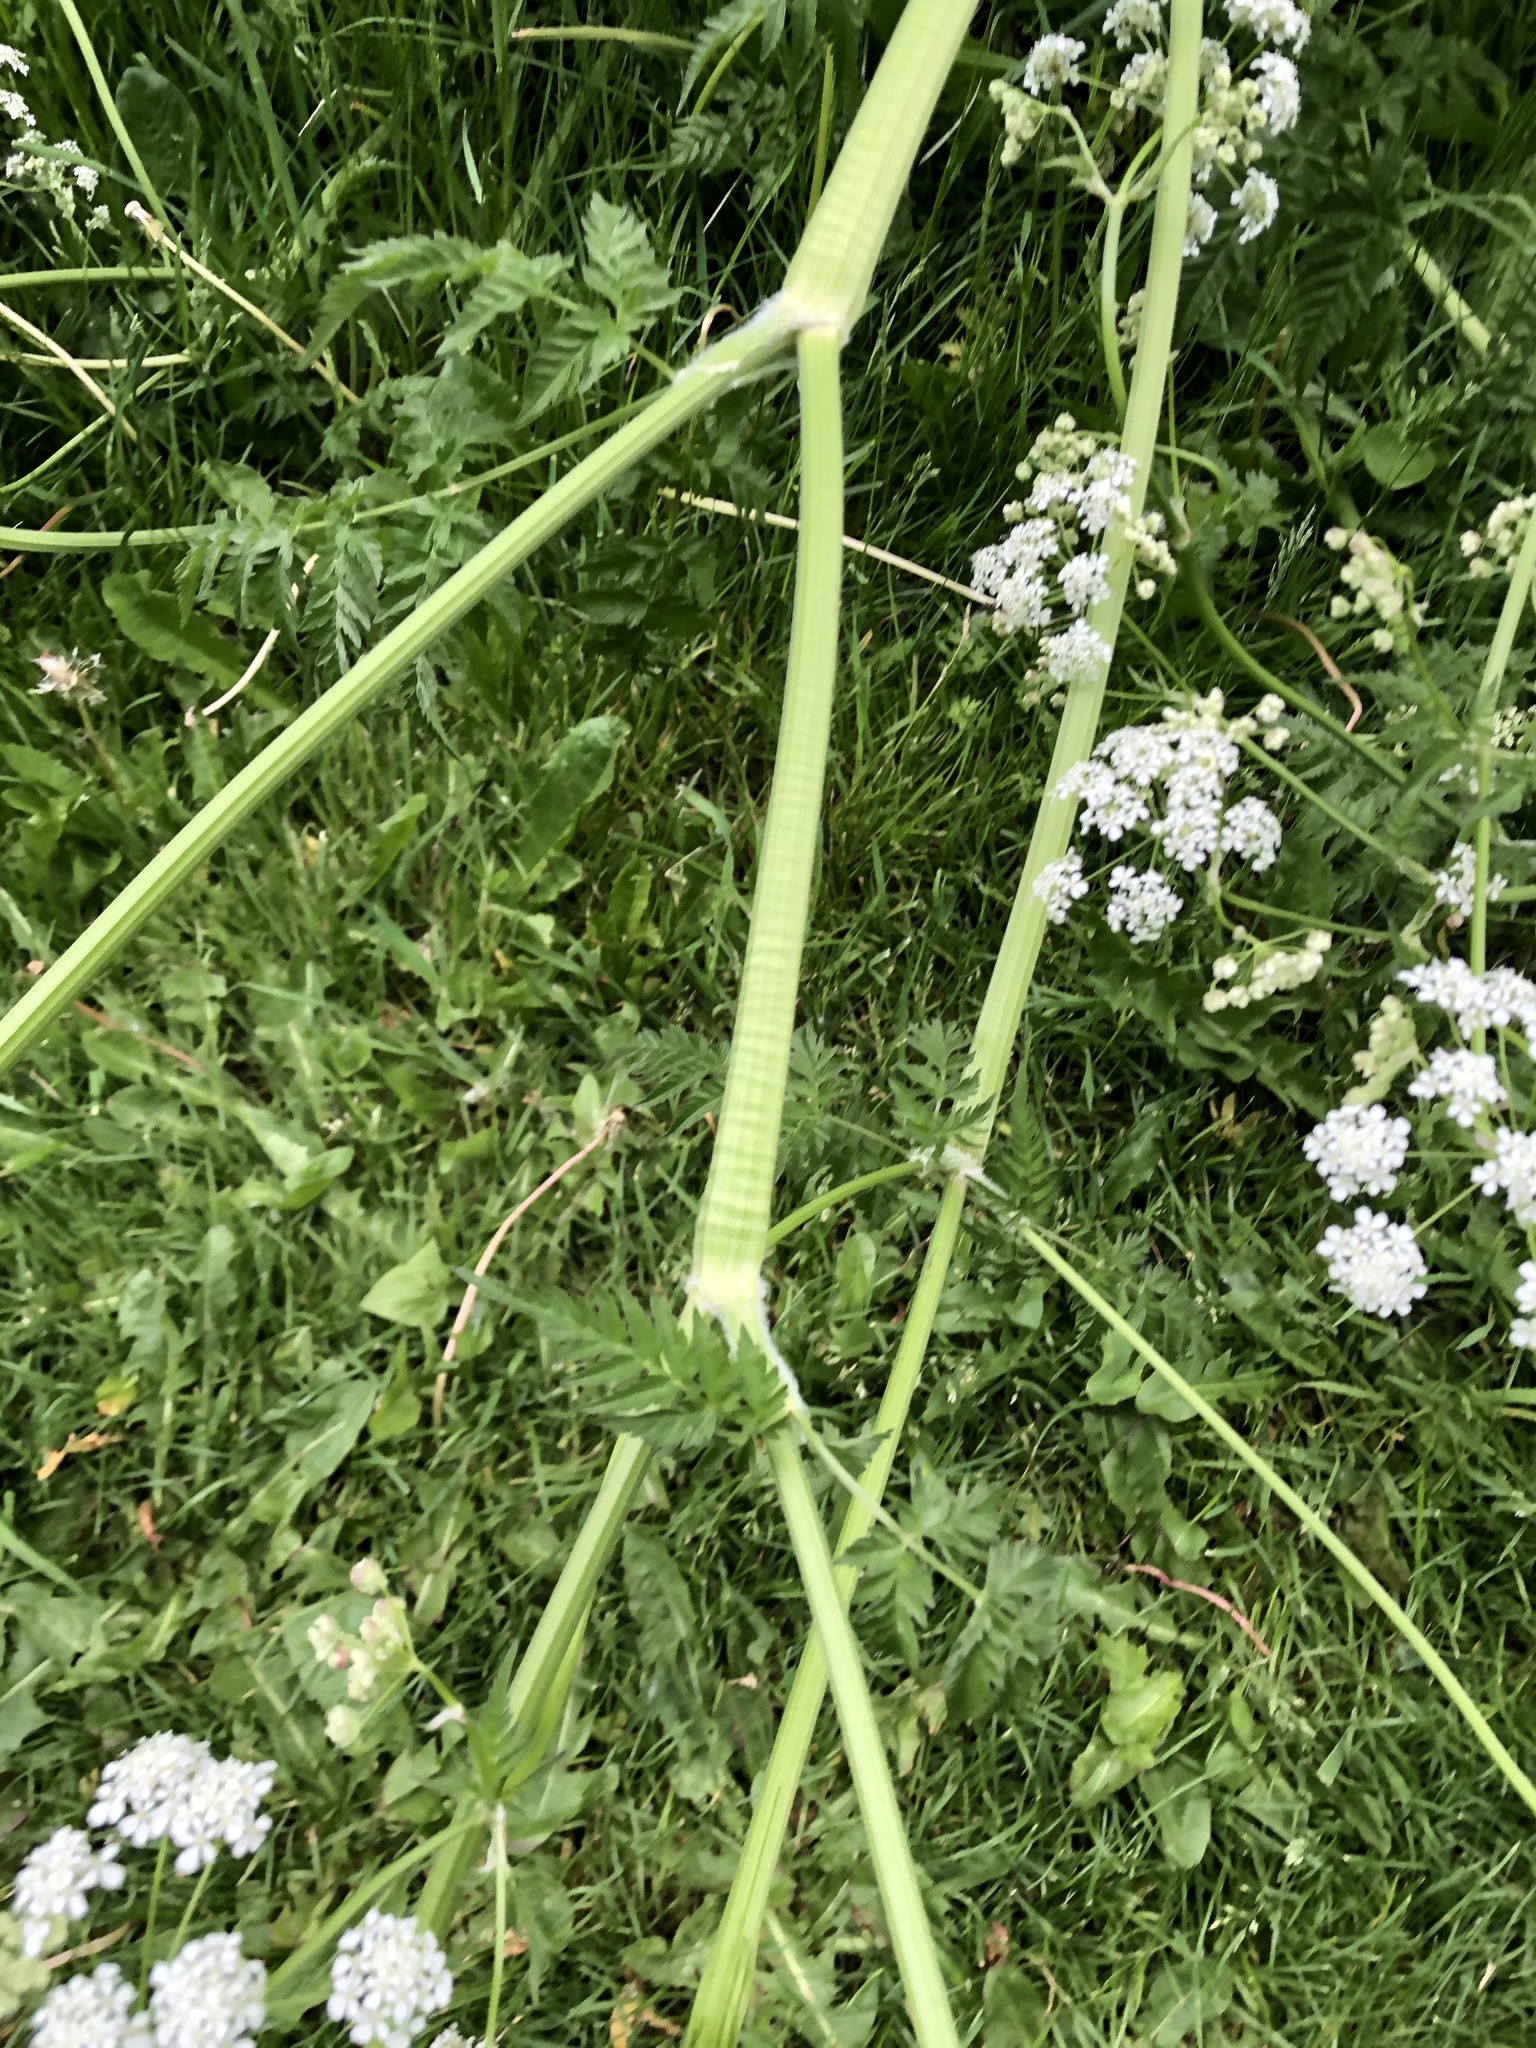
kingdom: Plantae
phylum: Tracheophyta
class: Magnoliopsida
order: Apiales
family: Apiaceae
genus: Anthriscus
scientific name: Anthriscus sylvestris
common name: Cow parsley
